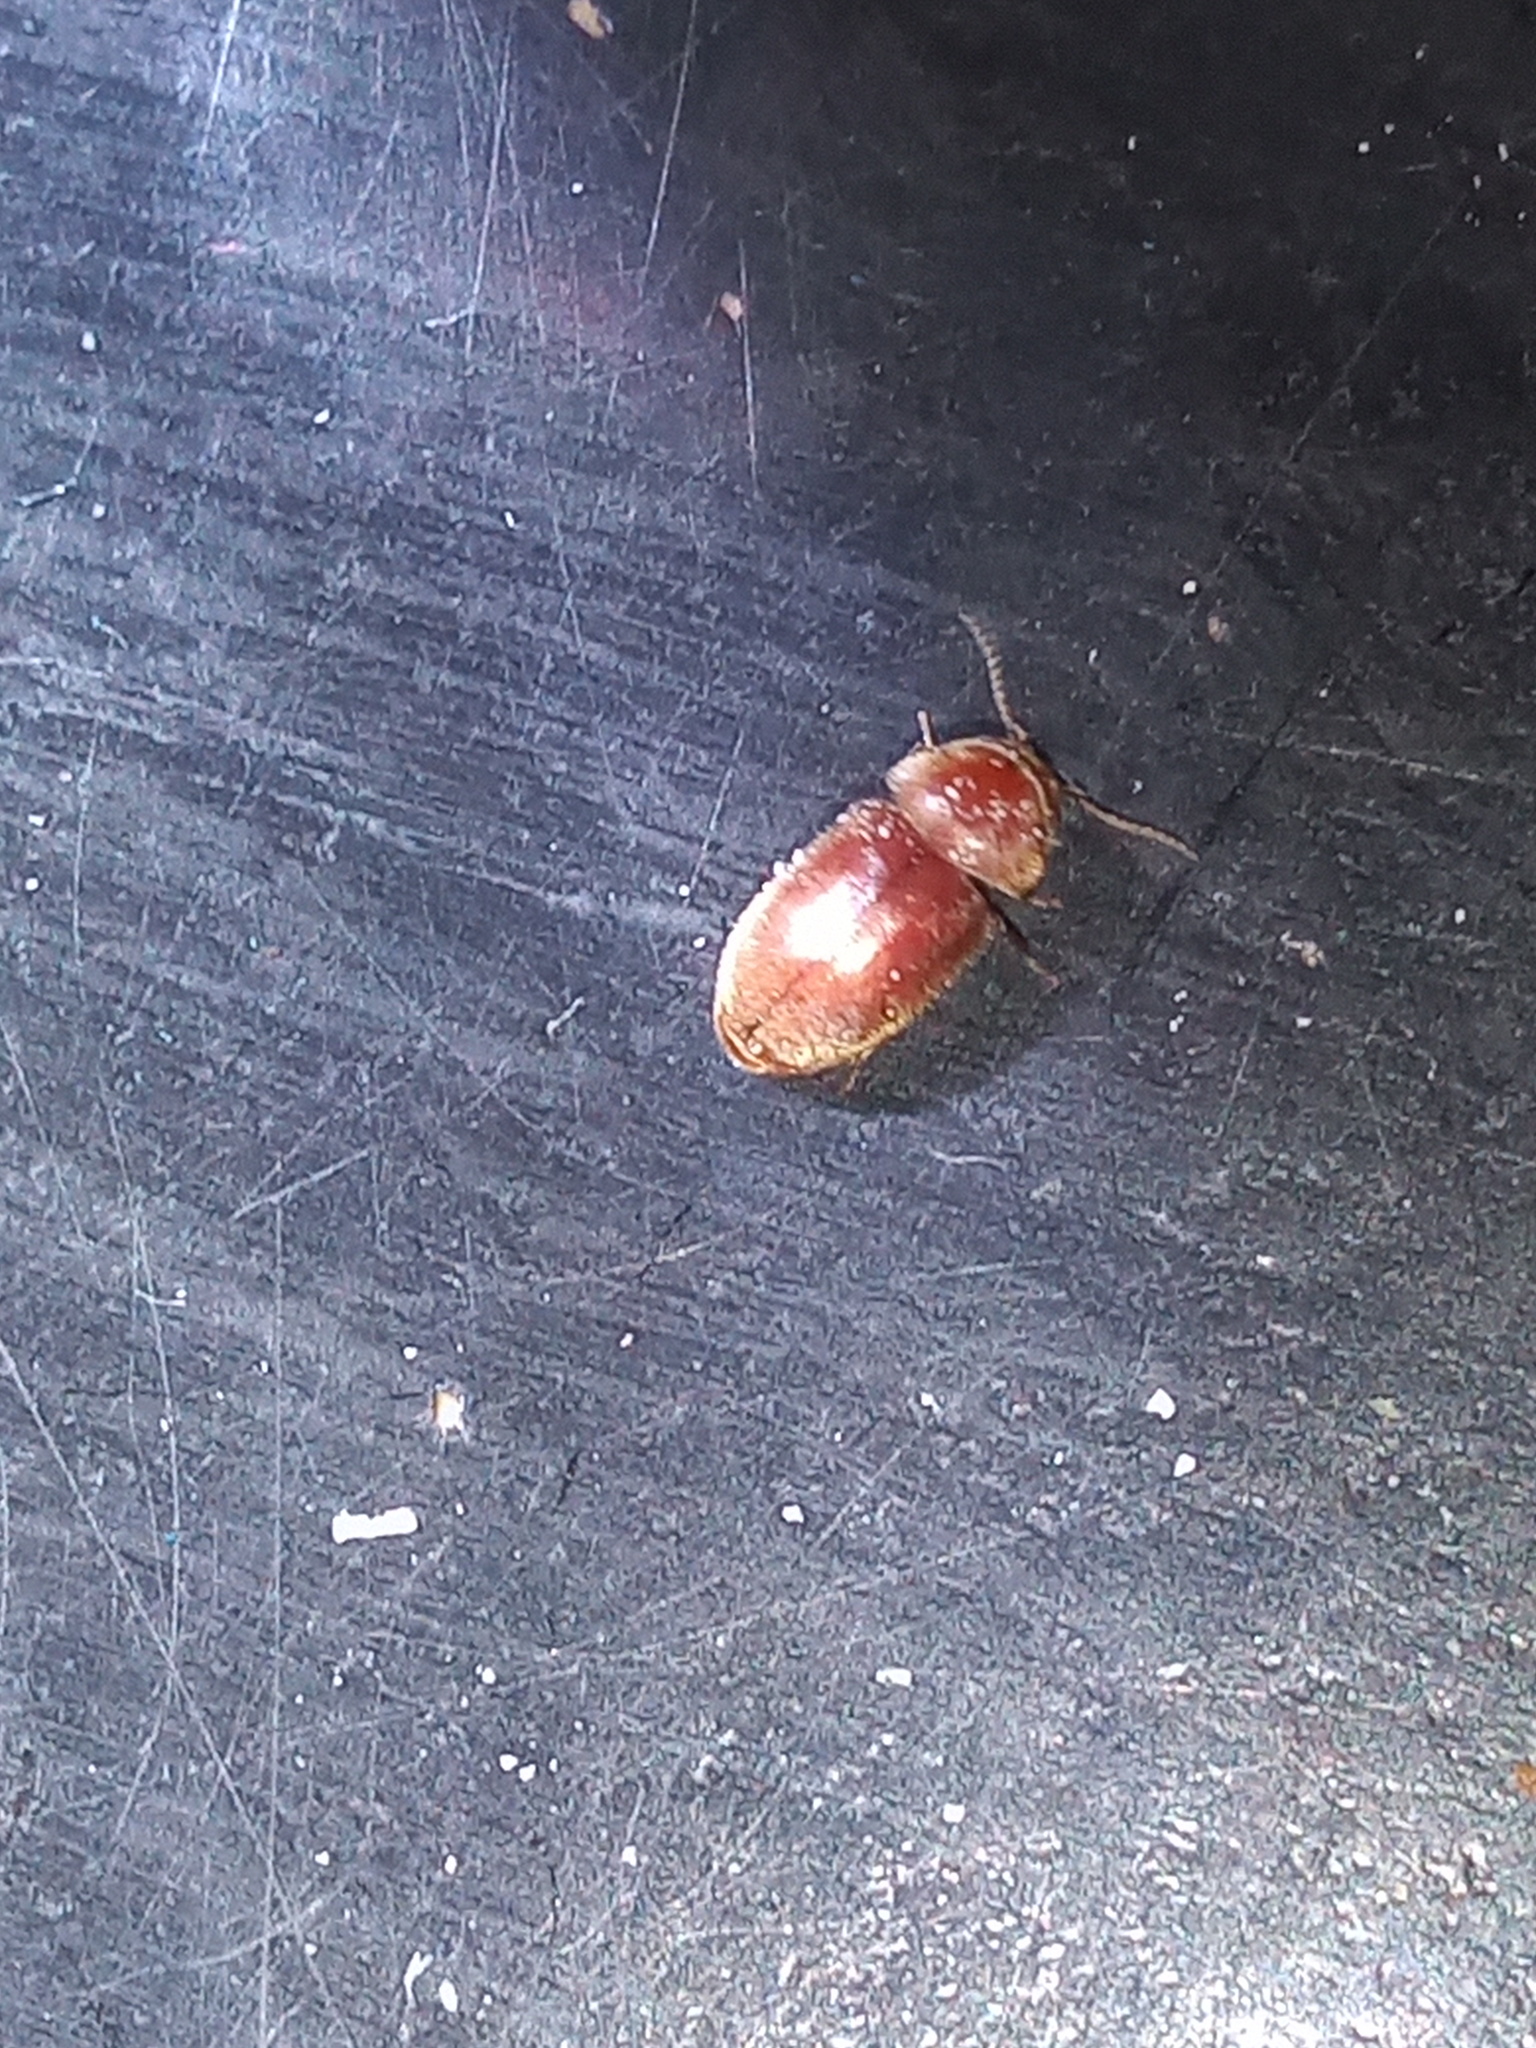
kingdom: Animalia
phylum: Arthropoda
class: Insecta
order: Coleoptera
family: Anobiidae
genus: Lasioderma
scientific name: Lasioderma serricorne
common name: Cigarette beetle
